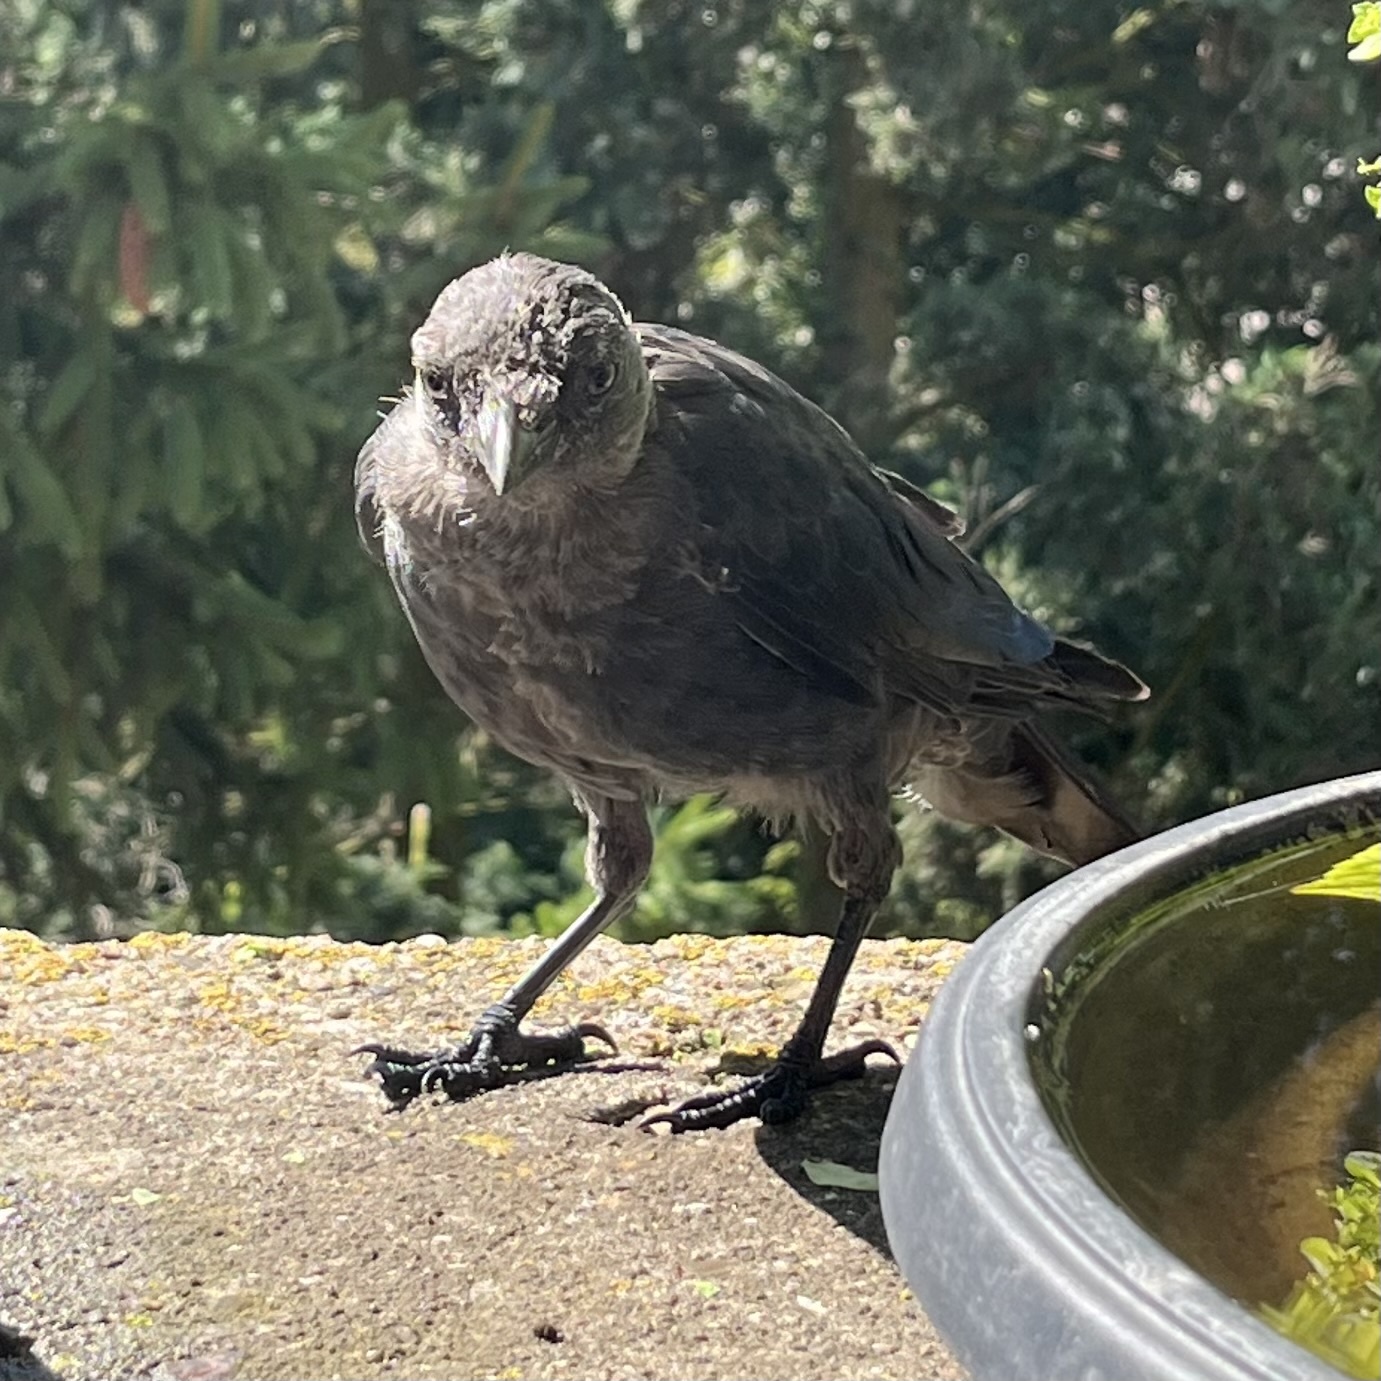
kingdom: Animalia
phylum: Chordata
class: Aves
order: Passeriformes
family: Corvidae
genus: Coloeus
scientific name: Coloeus monedula
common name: Western jackdaw
